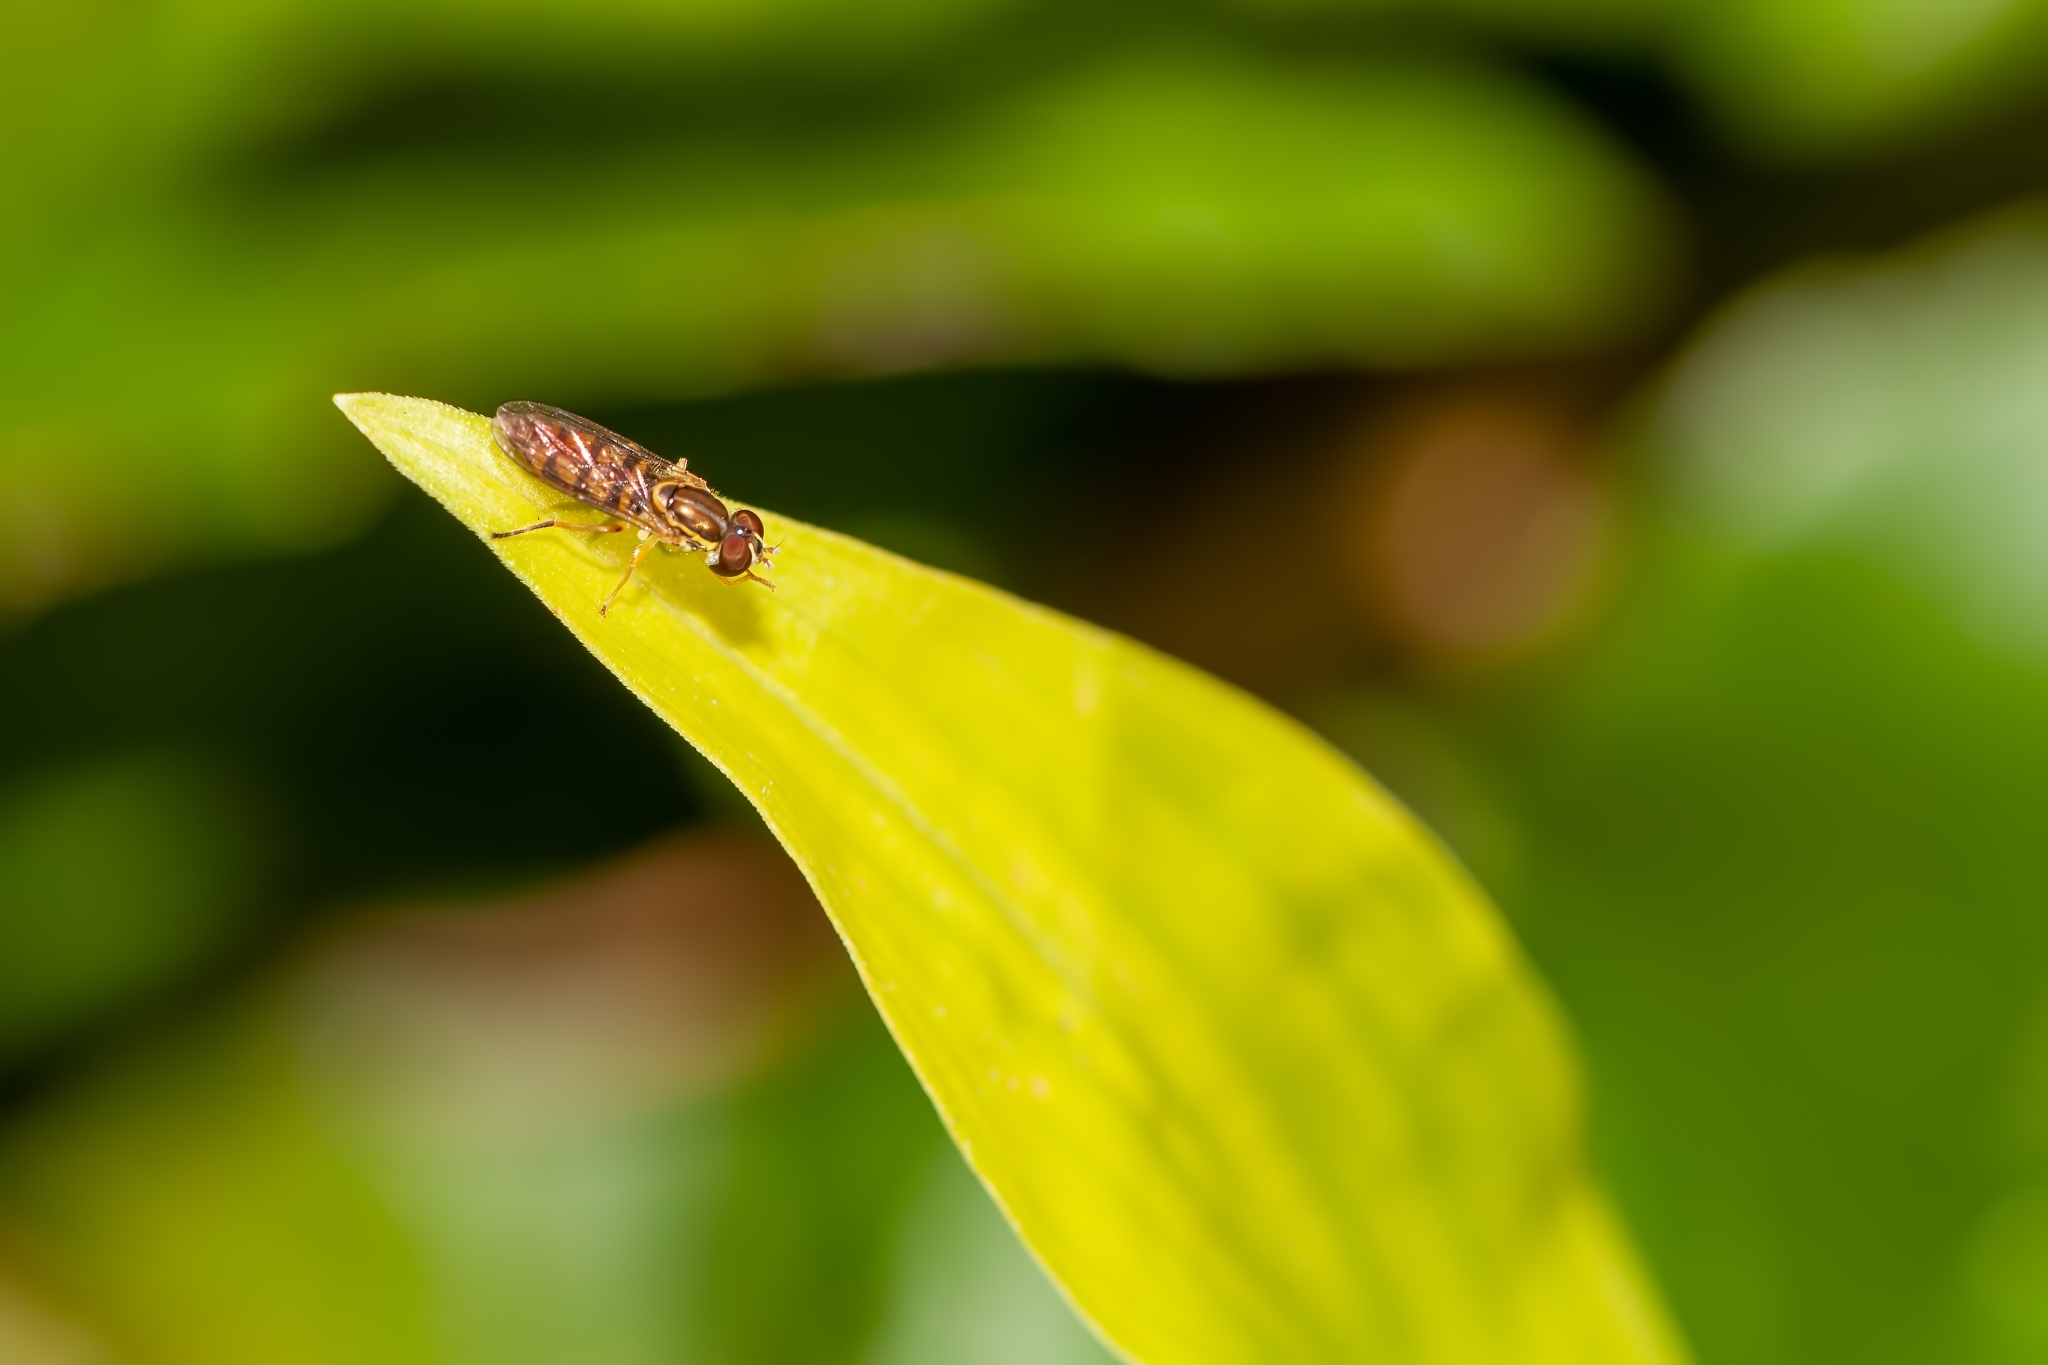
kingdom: Animalia
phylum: Arthropoda
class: Insecta
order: Diptera
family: Syrphidae
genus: Toxomerus
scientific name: Toxomerus floralis
